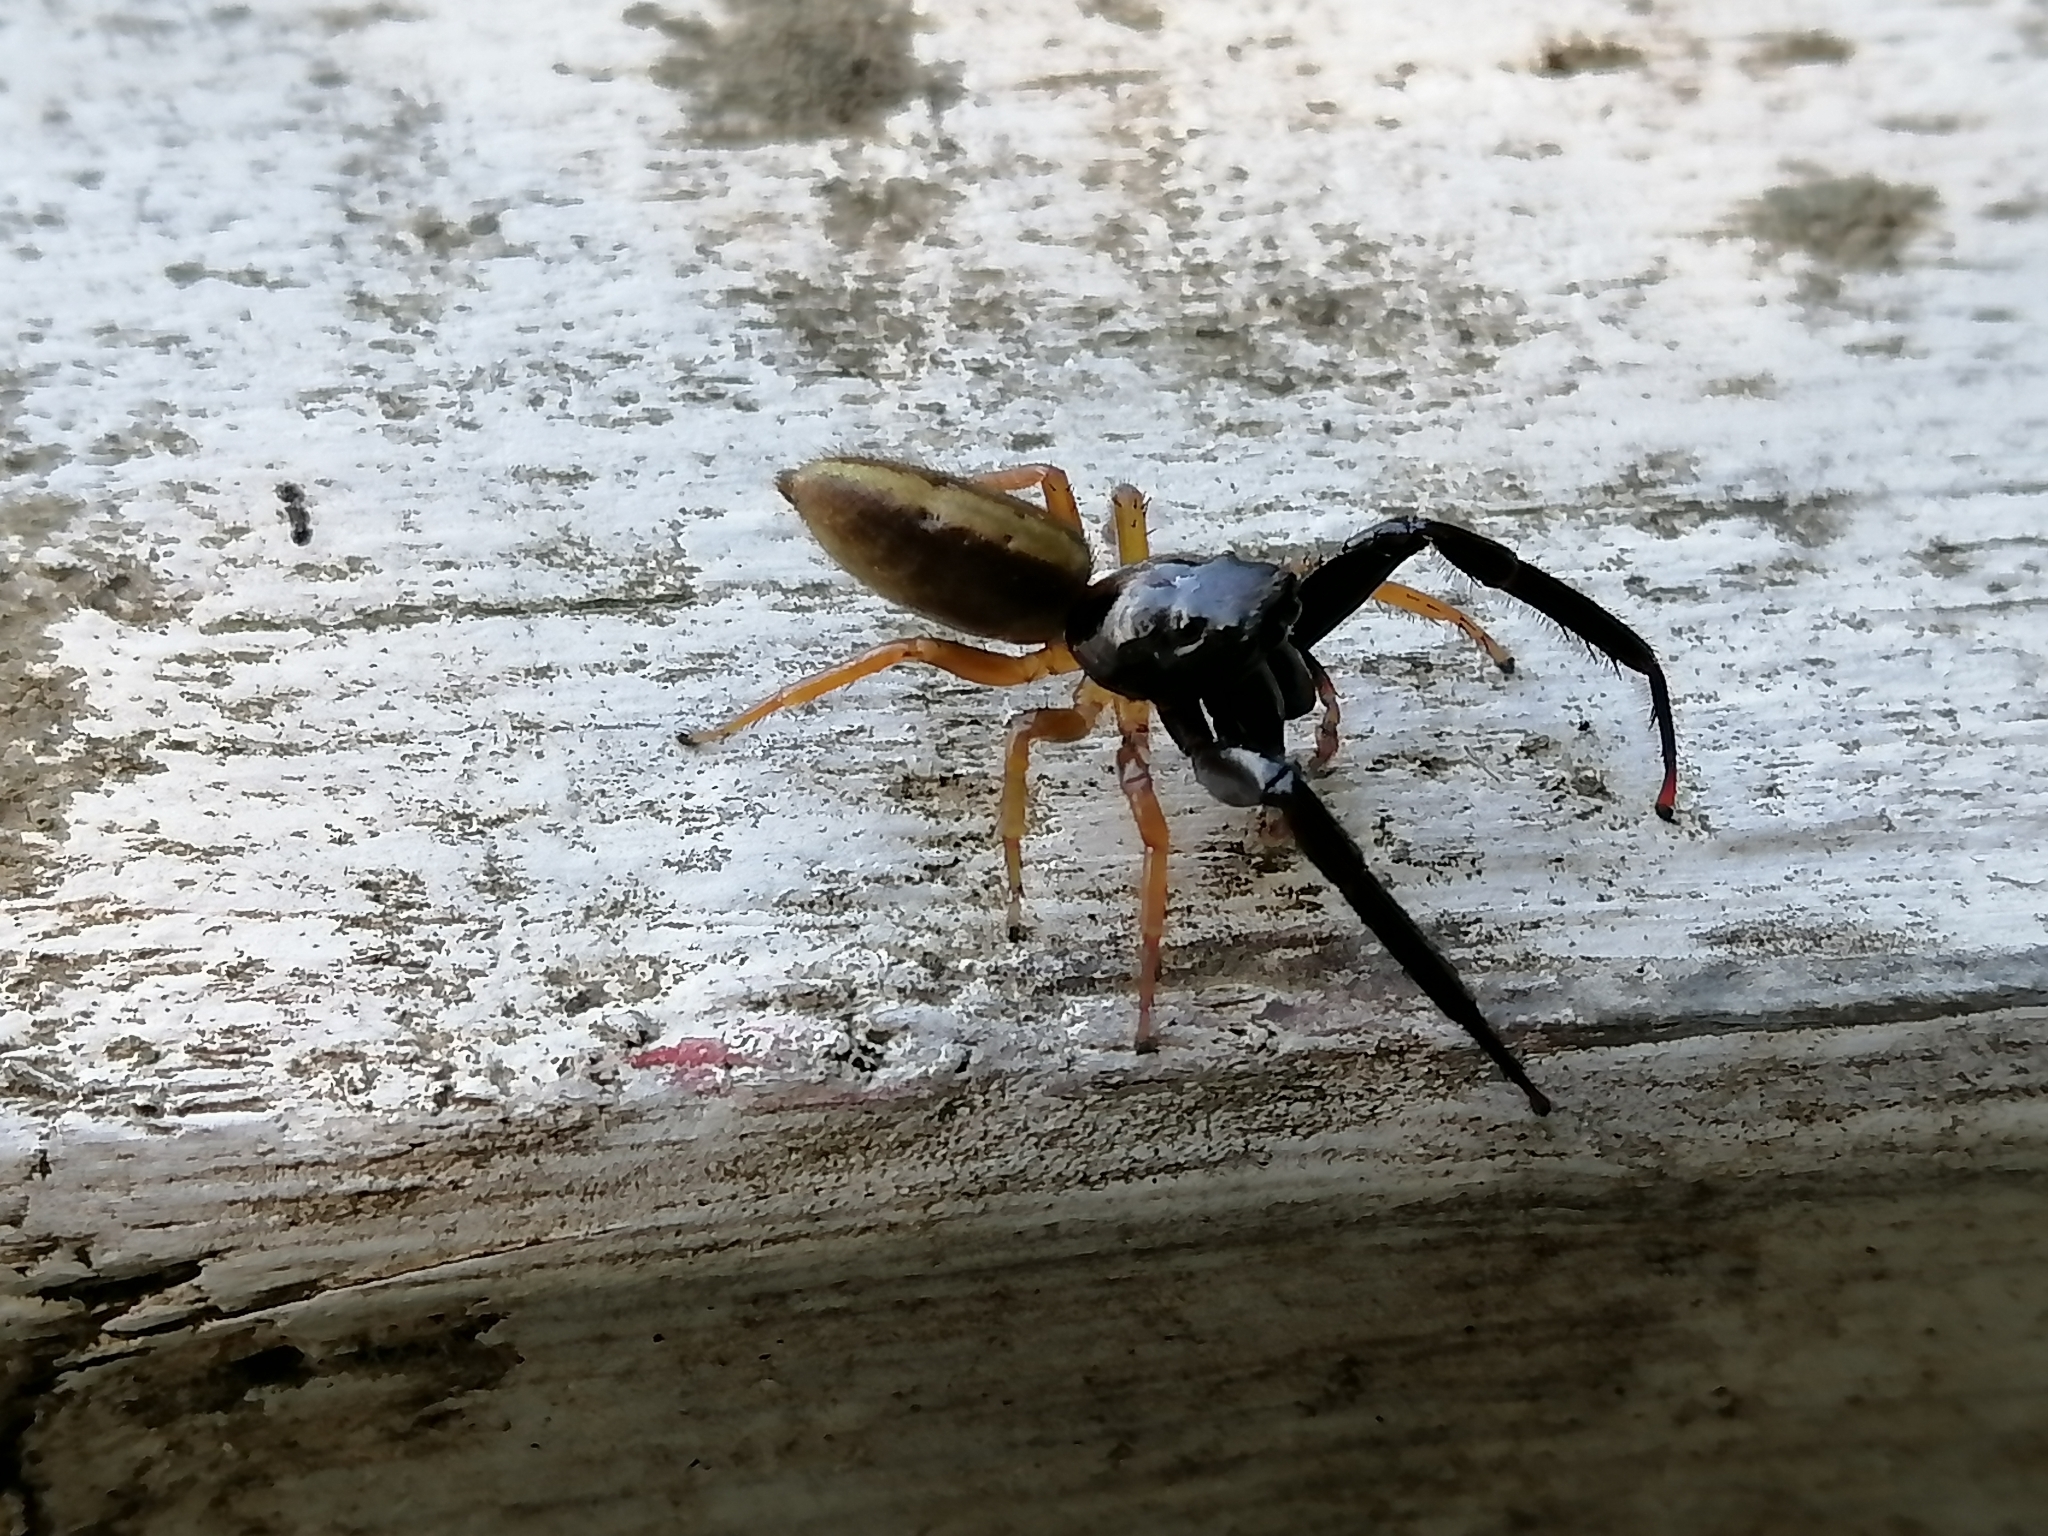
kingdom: Animalia
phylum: Arthropoda
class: Arachnida
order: Araneae
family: Salticidae
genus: Trite
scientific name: Trite planiceps
